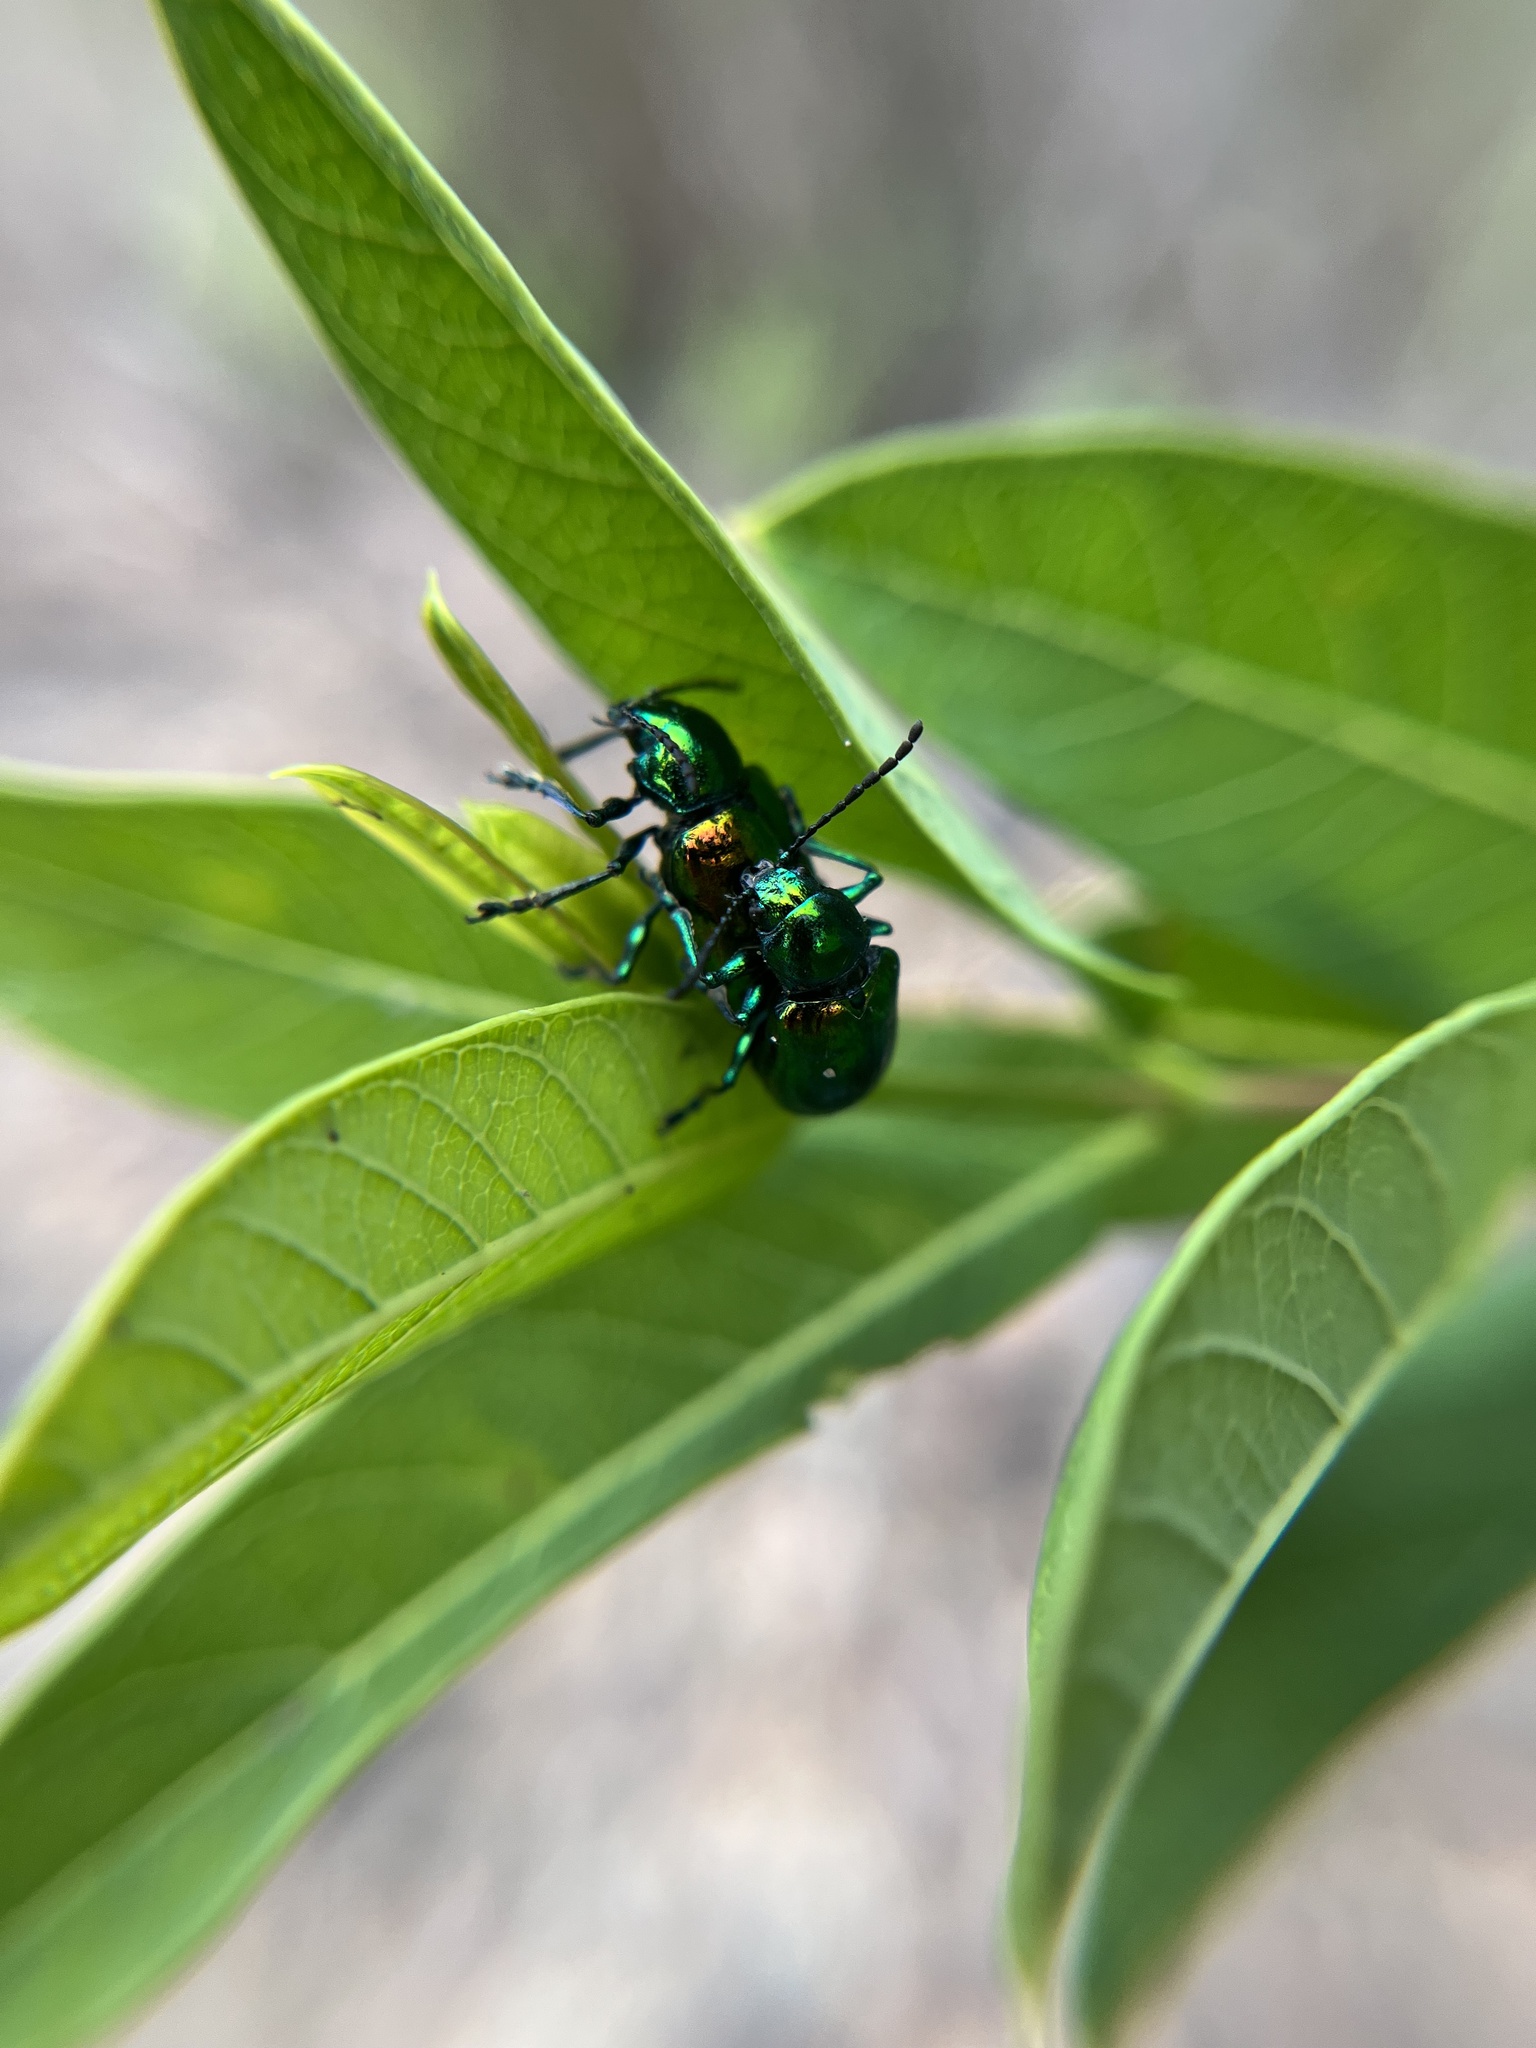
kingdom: Animalia
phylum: Arthropoda
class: Insecta
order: Coleoptera
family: Chrysomelidae
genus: Chrysochus
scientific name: Chrysochus auratus
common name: Dogbane leaf beetle
